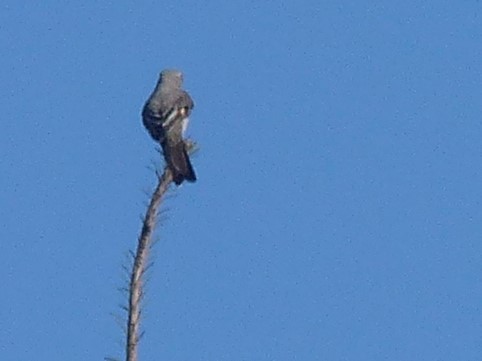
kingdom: Animalia
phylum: Chordata
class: Aves
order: Passeriformes
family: Turdidae
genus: Myadestes
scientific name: Myadestes townsendi
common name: Townsend's solitaire
